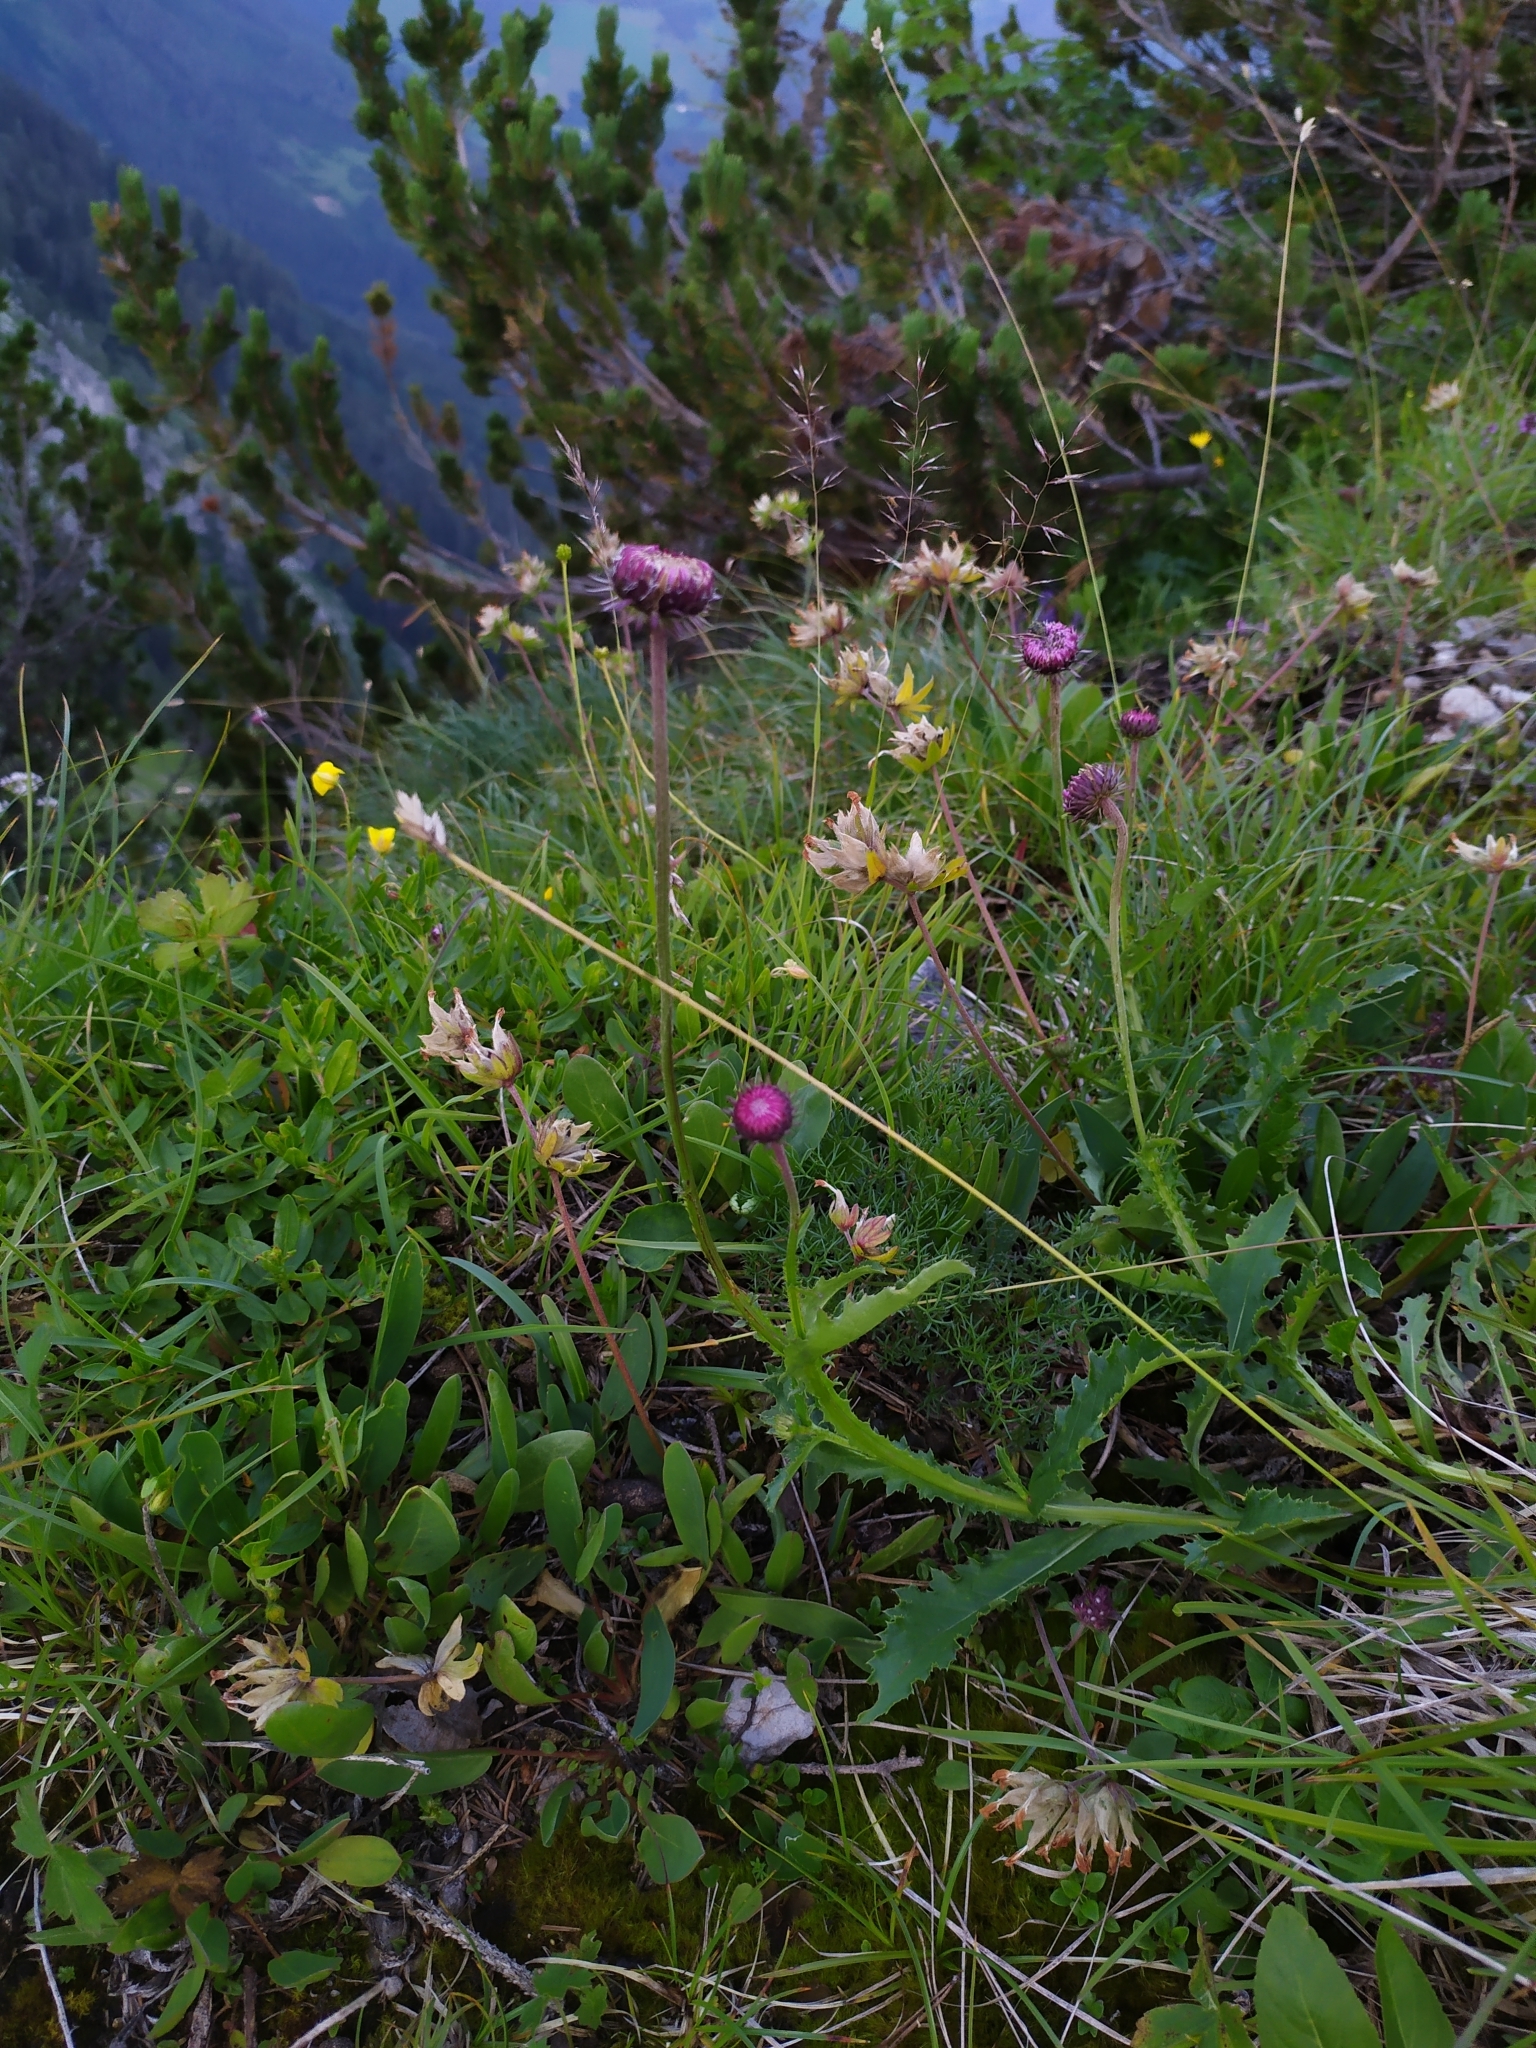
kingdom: Plantae
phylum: Tracheophyta
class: Magnoliopsida
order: Asterales
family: Asteraceae
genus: Carduus
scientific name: Carduus defloratus
